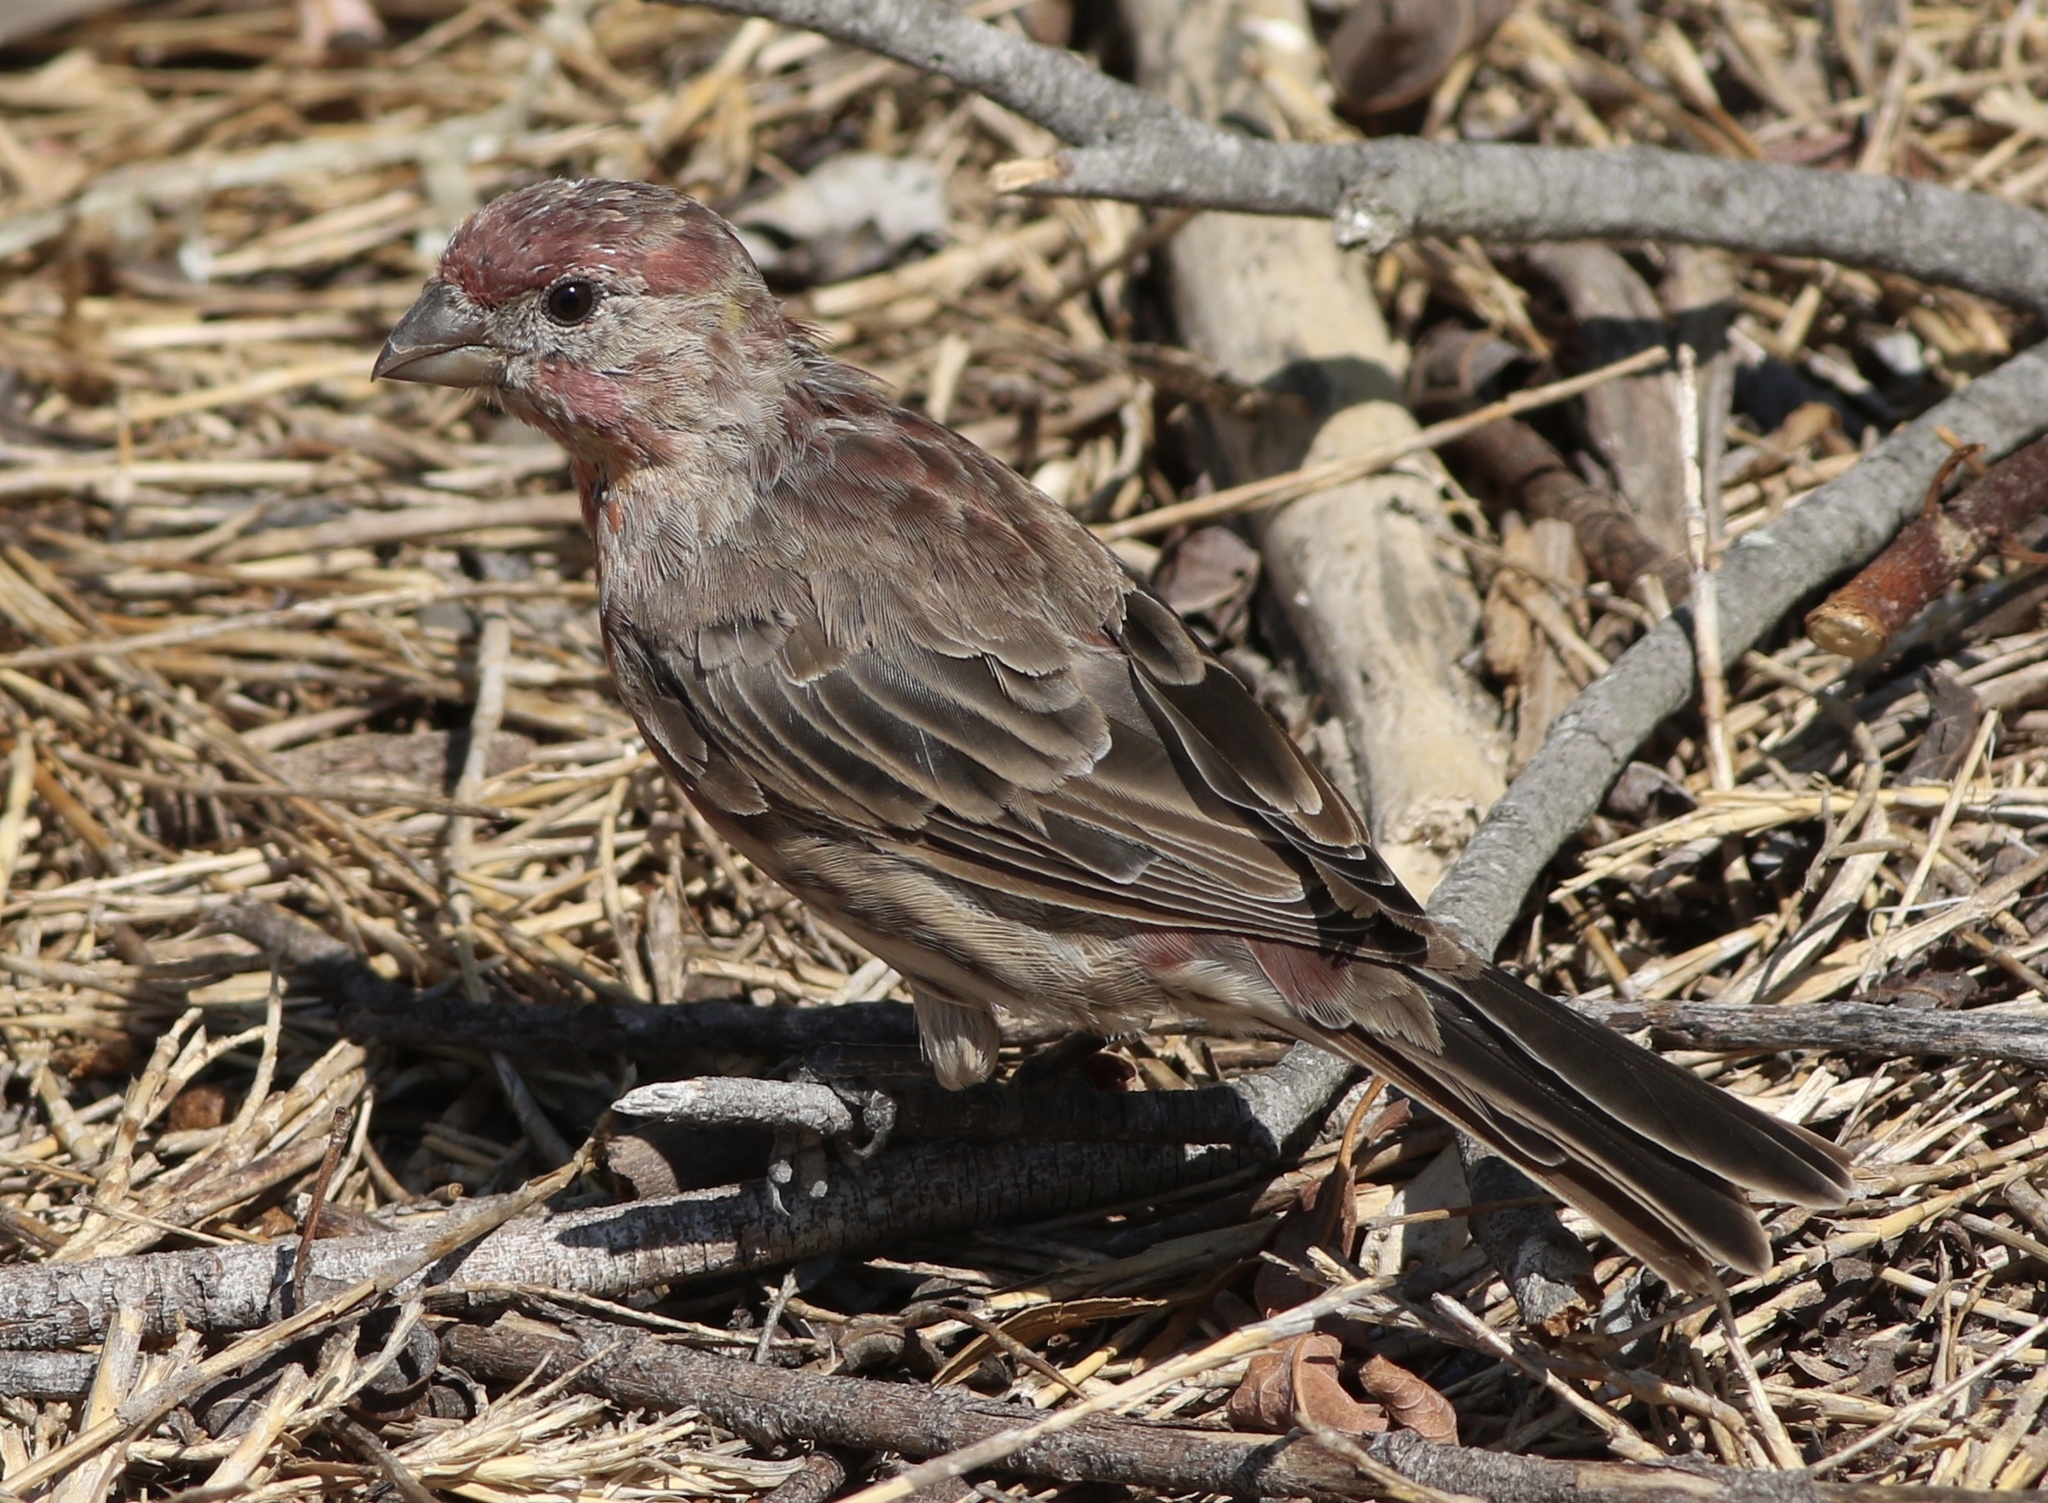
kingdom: Animalia
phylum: Chordata
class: Aves
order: Passeriformes
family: Fringillidae
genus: Haemorhous
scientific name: Haemorhous mexicanus
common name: House finch
